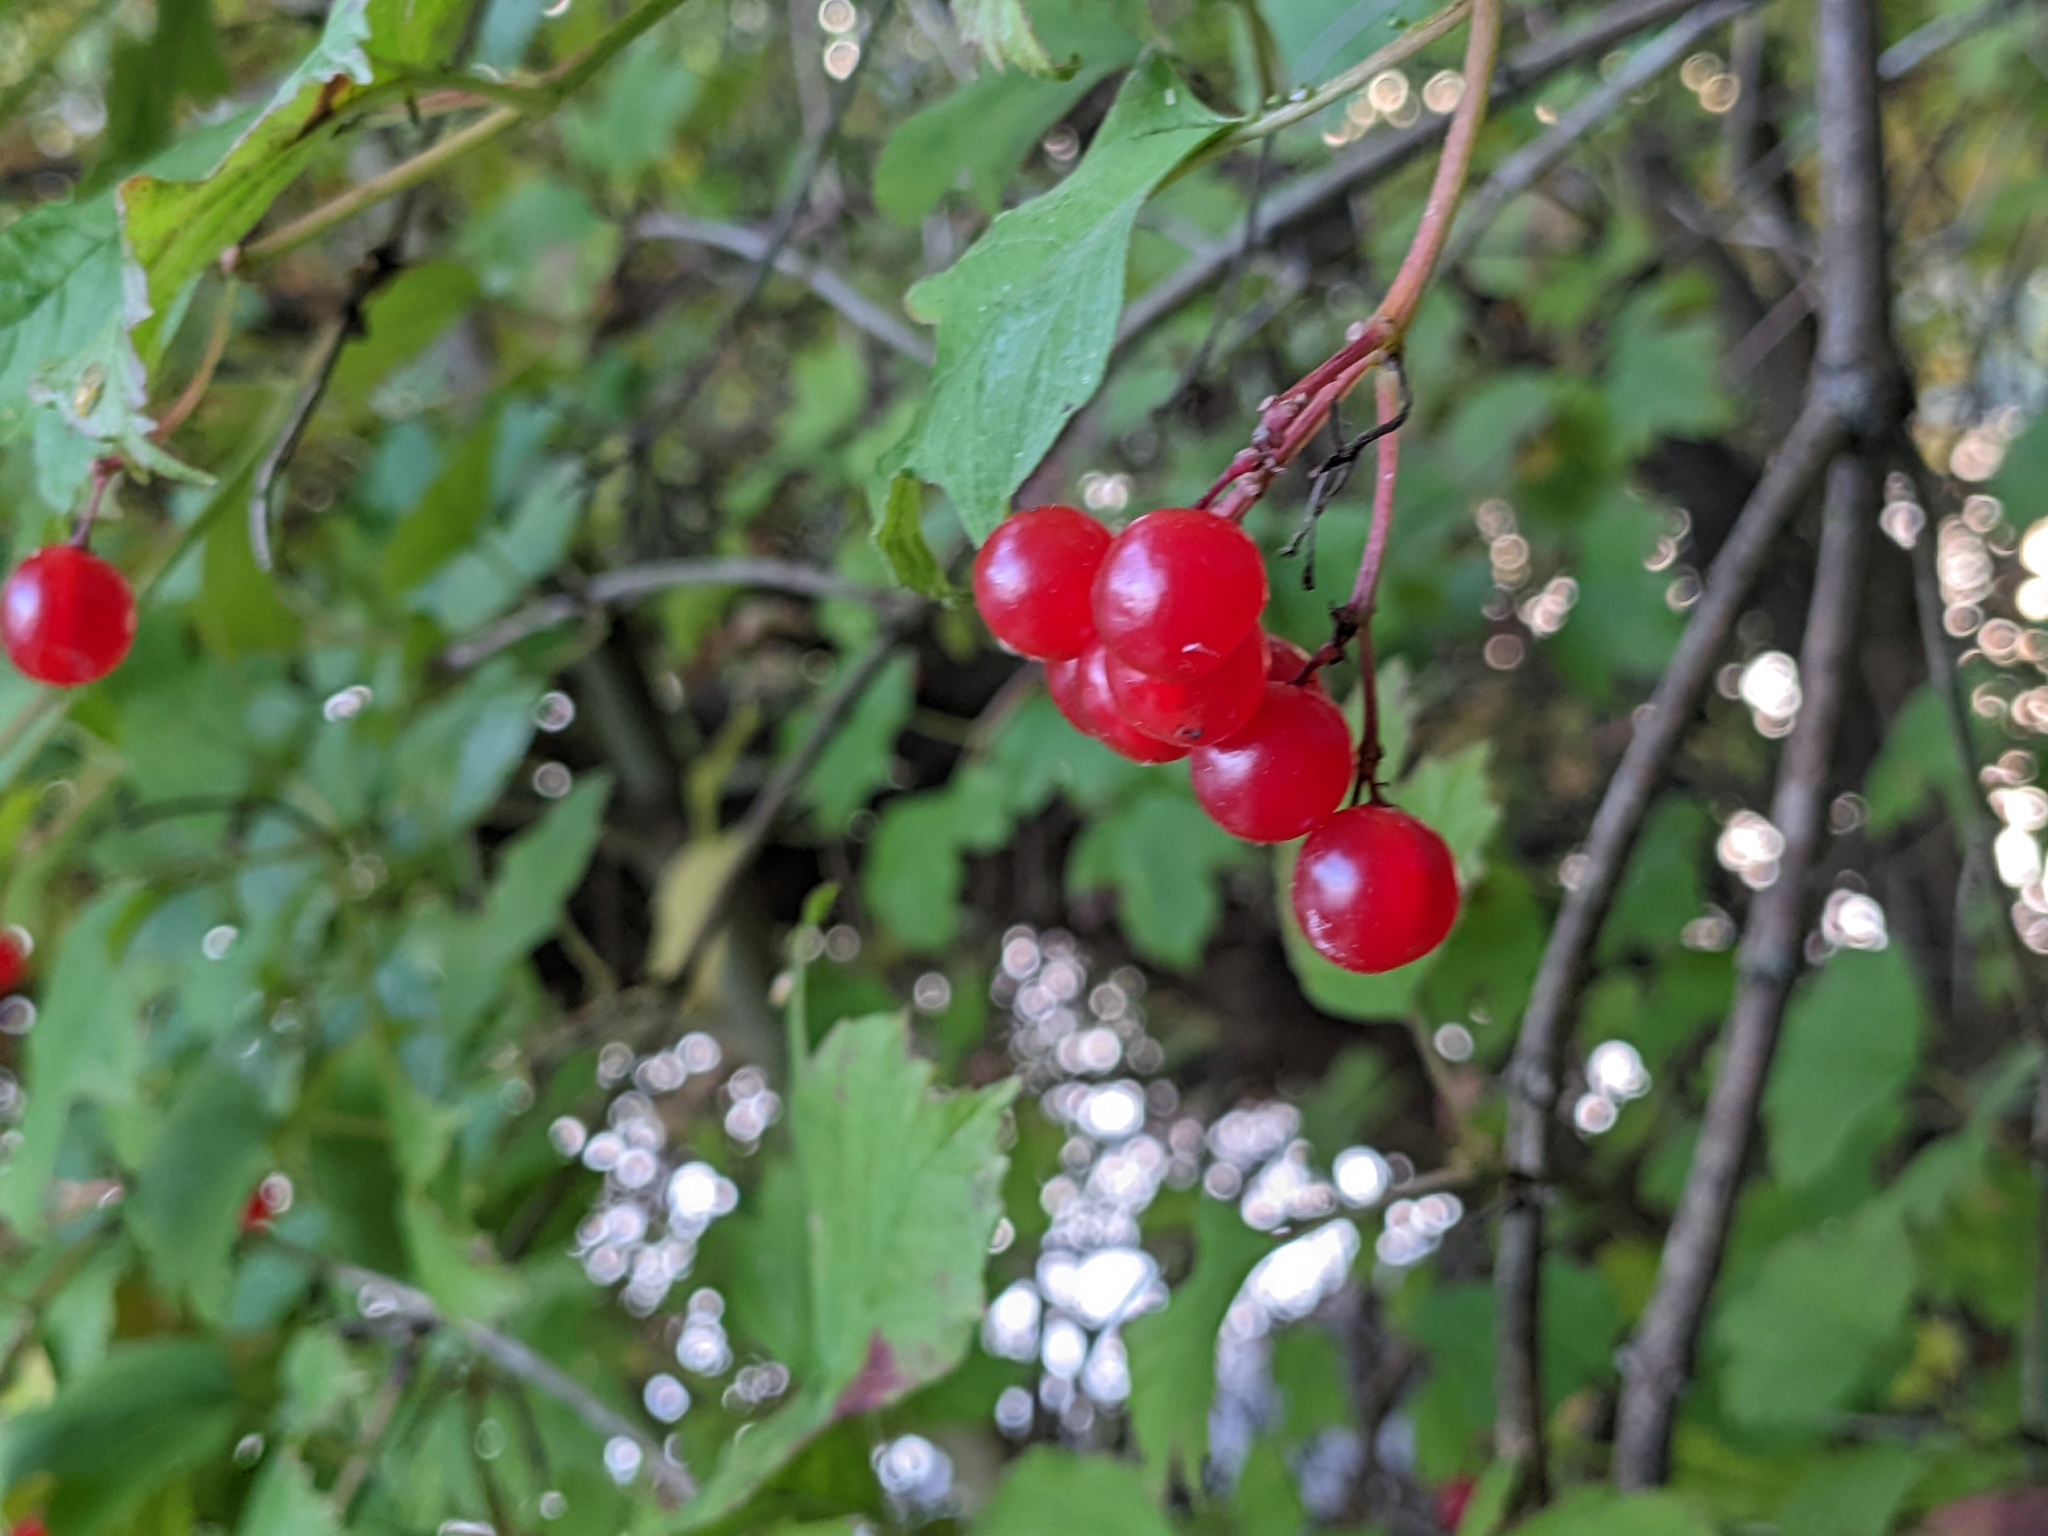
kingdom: Plantae
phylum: Tracheophyta
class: Magnoliopsida
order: Dipsacales
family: Viburnaceae
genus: Viburnum
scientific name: Viburnum opulus
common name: Guelder-rose
